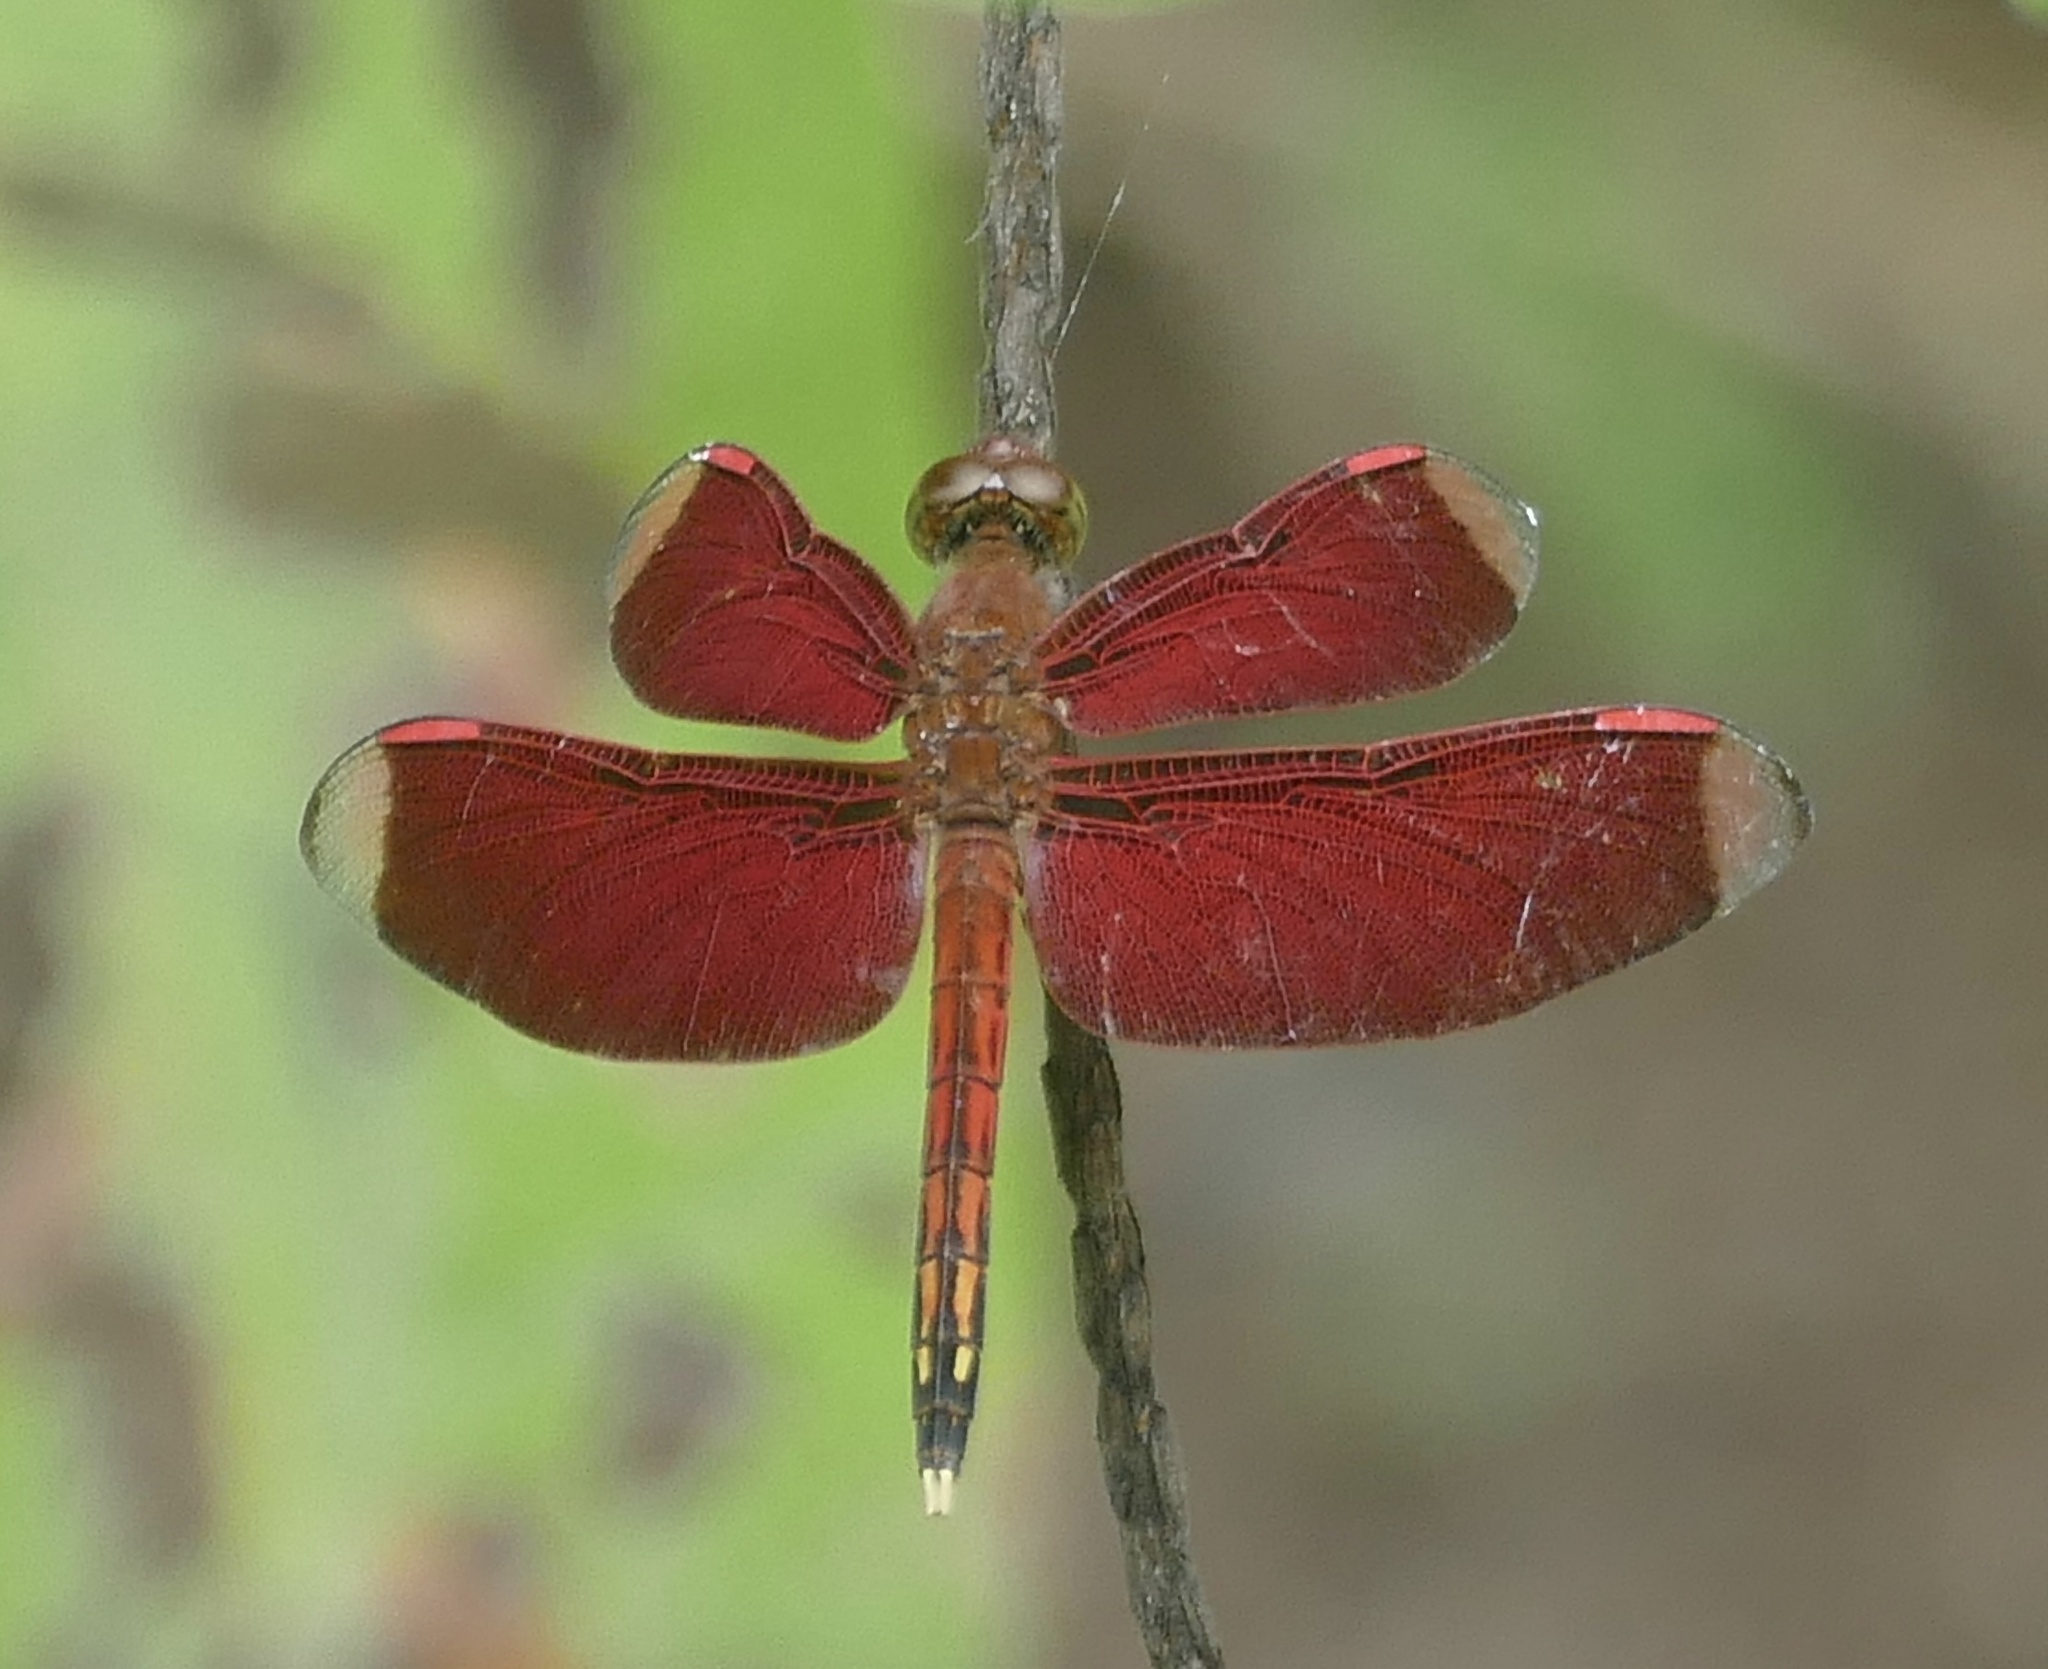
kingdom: Animalia
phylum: Arthropoda
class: Insecta
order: Odonata
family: Libellulidae
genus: Neurothemis
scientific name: Neurothemis manadensis
